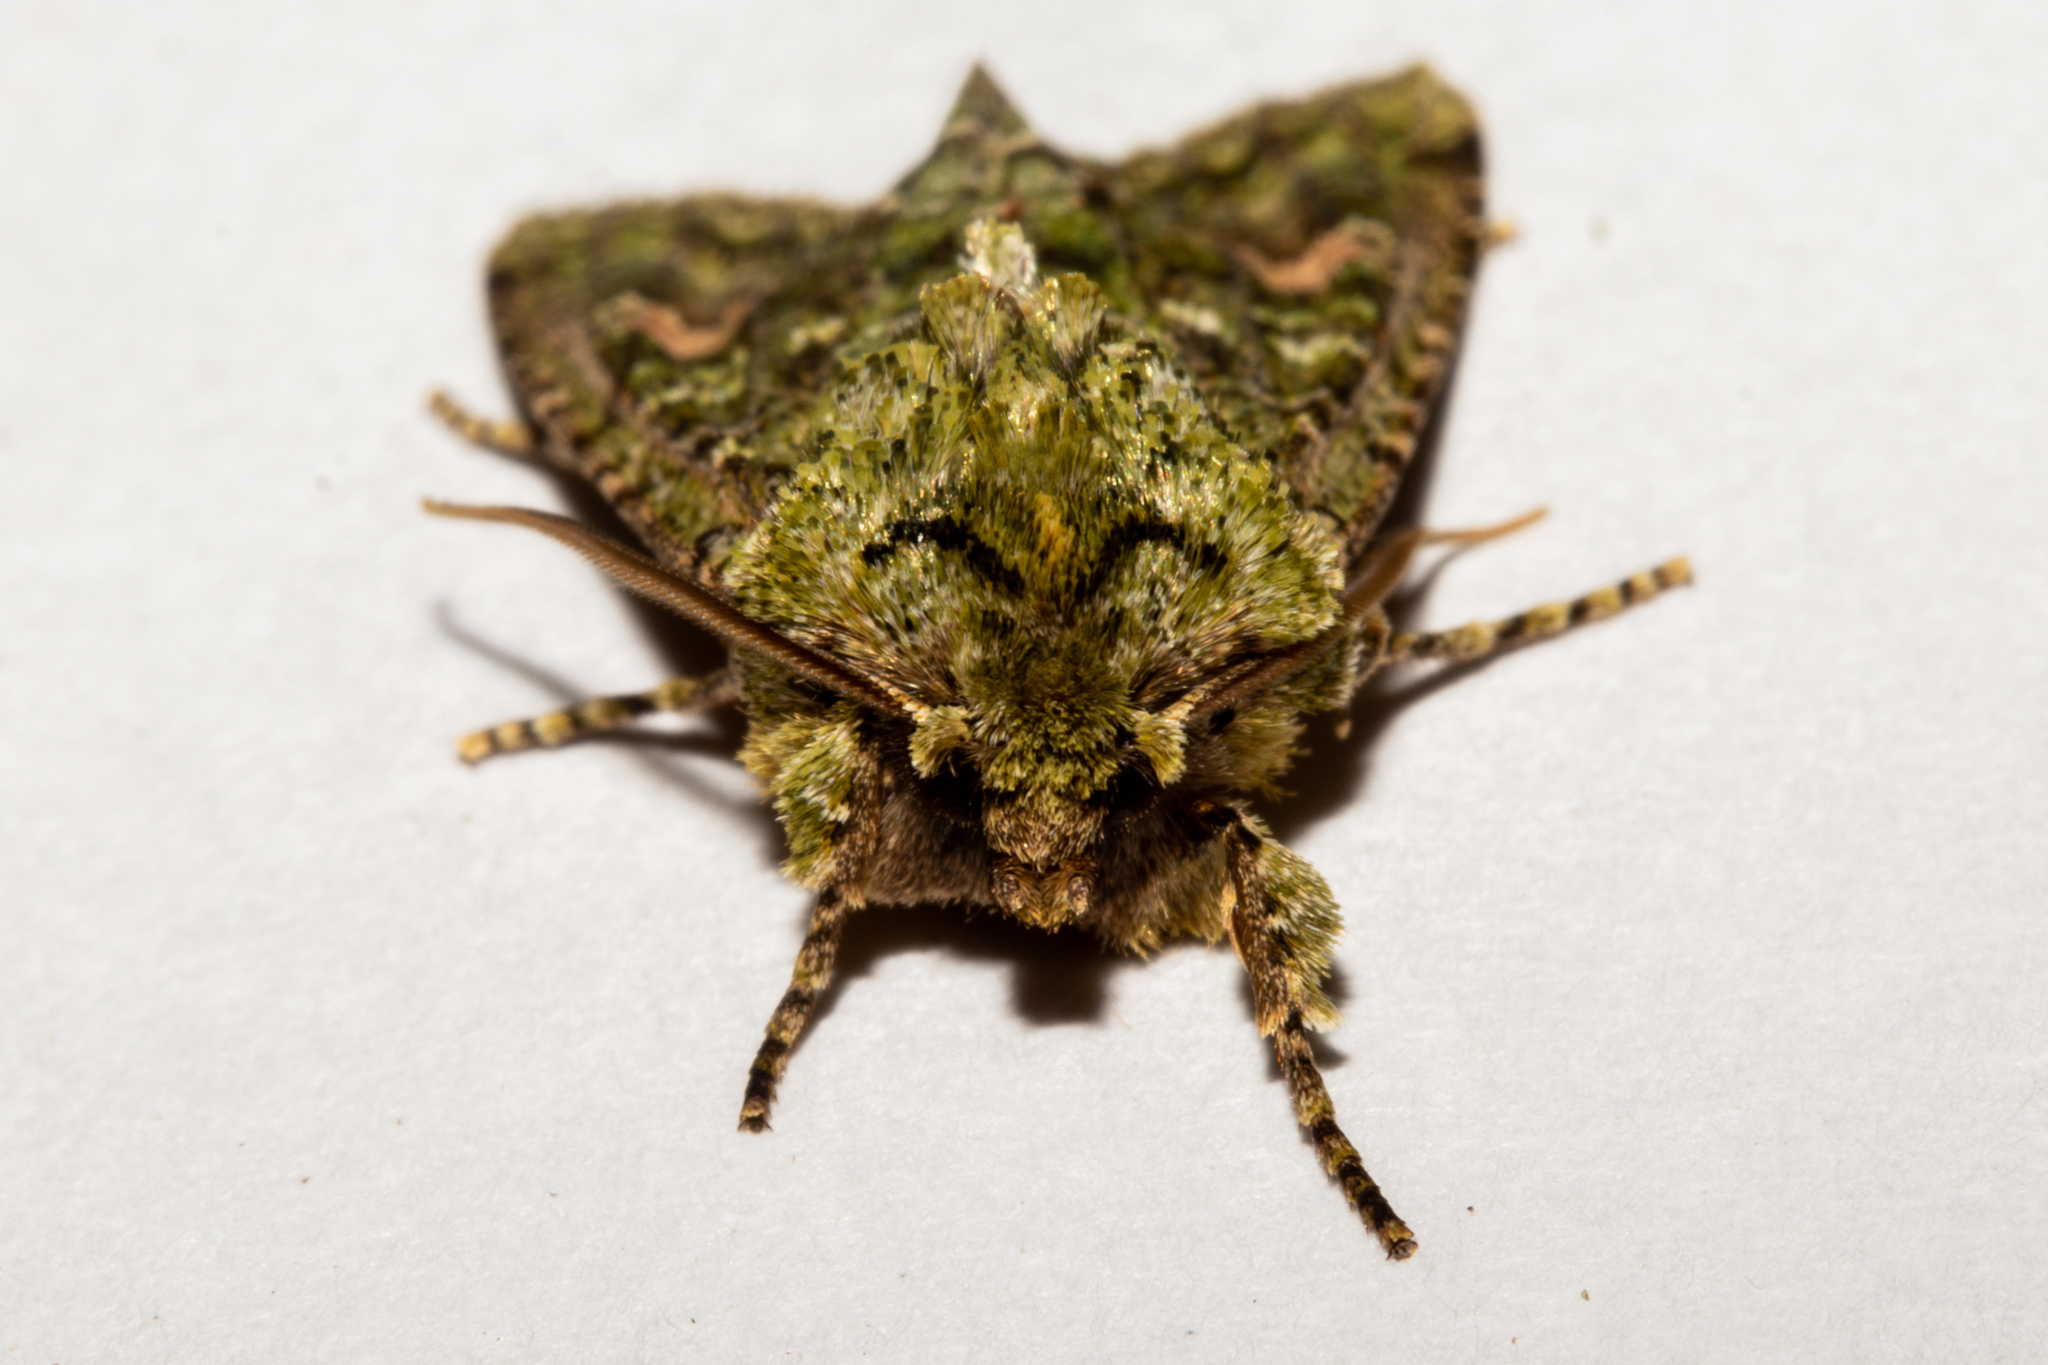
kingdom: Animalia
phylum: Arthropoda
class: Insecta
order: Lepidoptera
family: Noctuidae
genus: Ichneutica
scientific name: Ichneutica
